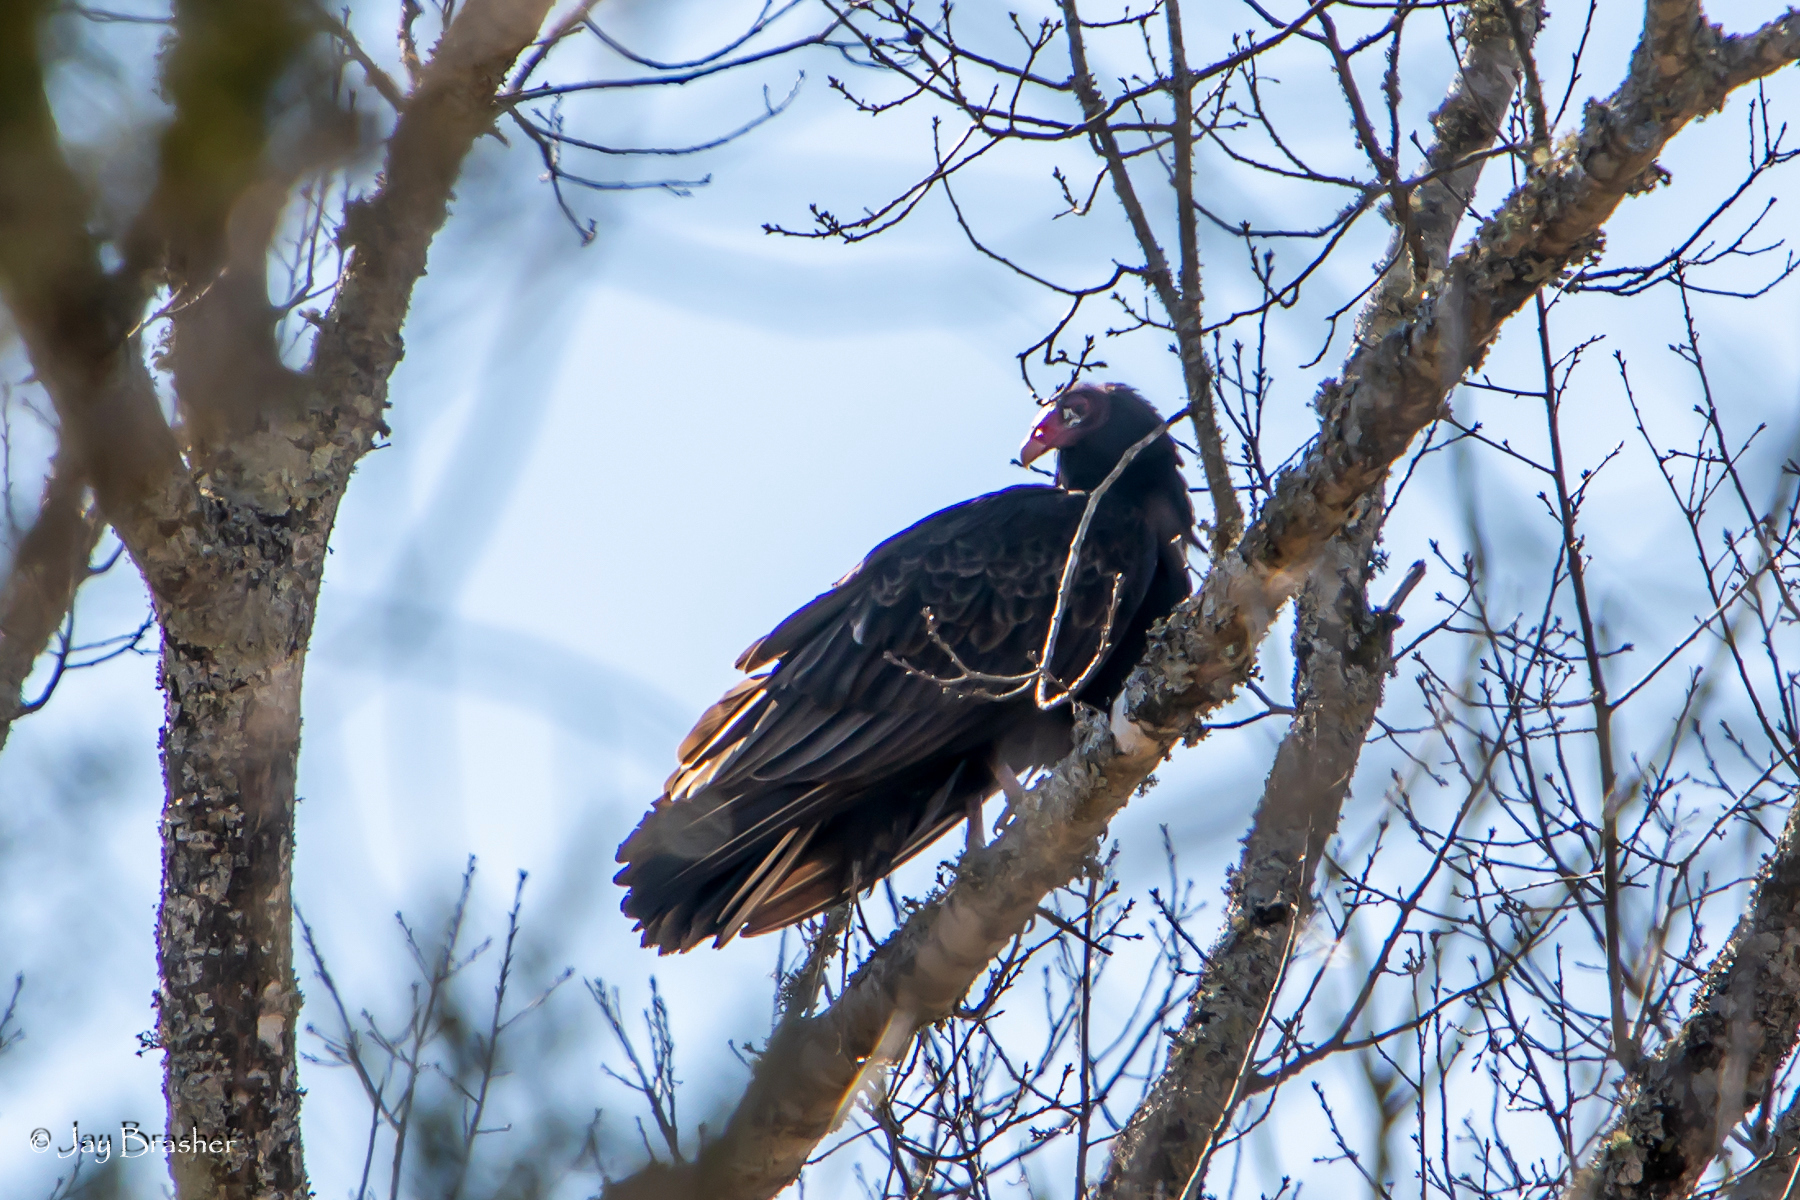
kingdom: Animalia
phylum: Chordata
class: Aves
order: Accipitriformes
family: Cathartidae
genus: Cathartes
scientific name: Cathartes aura
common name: Turkey vulture
